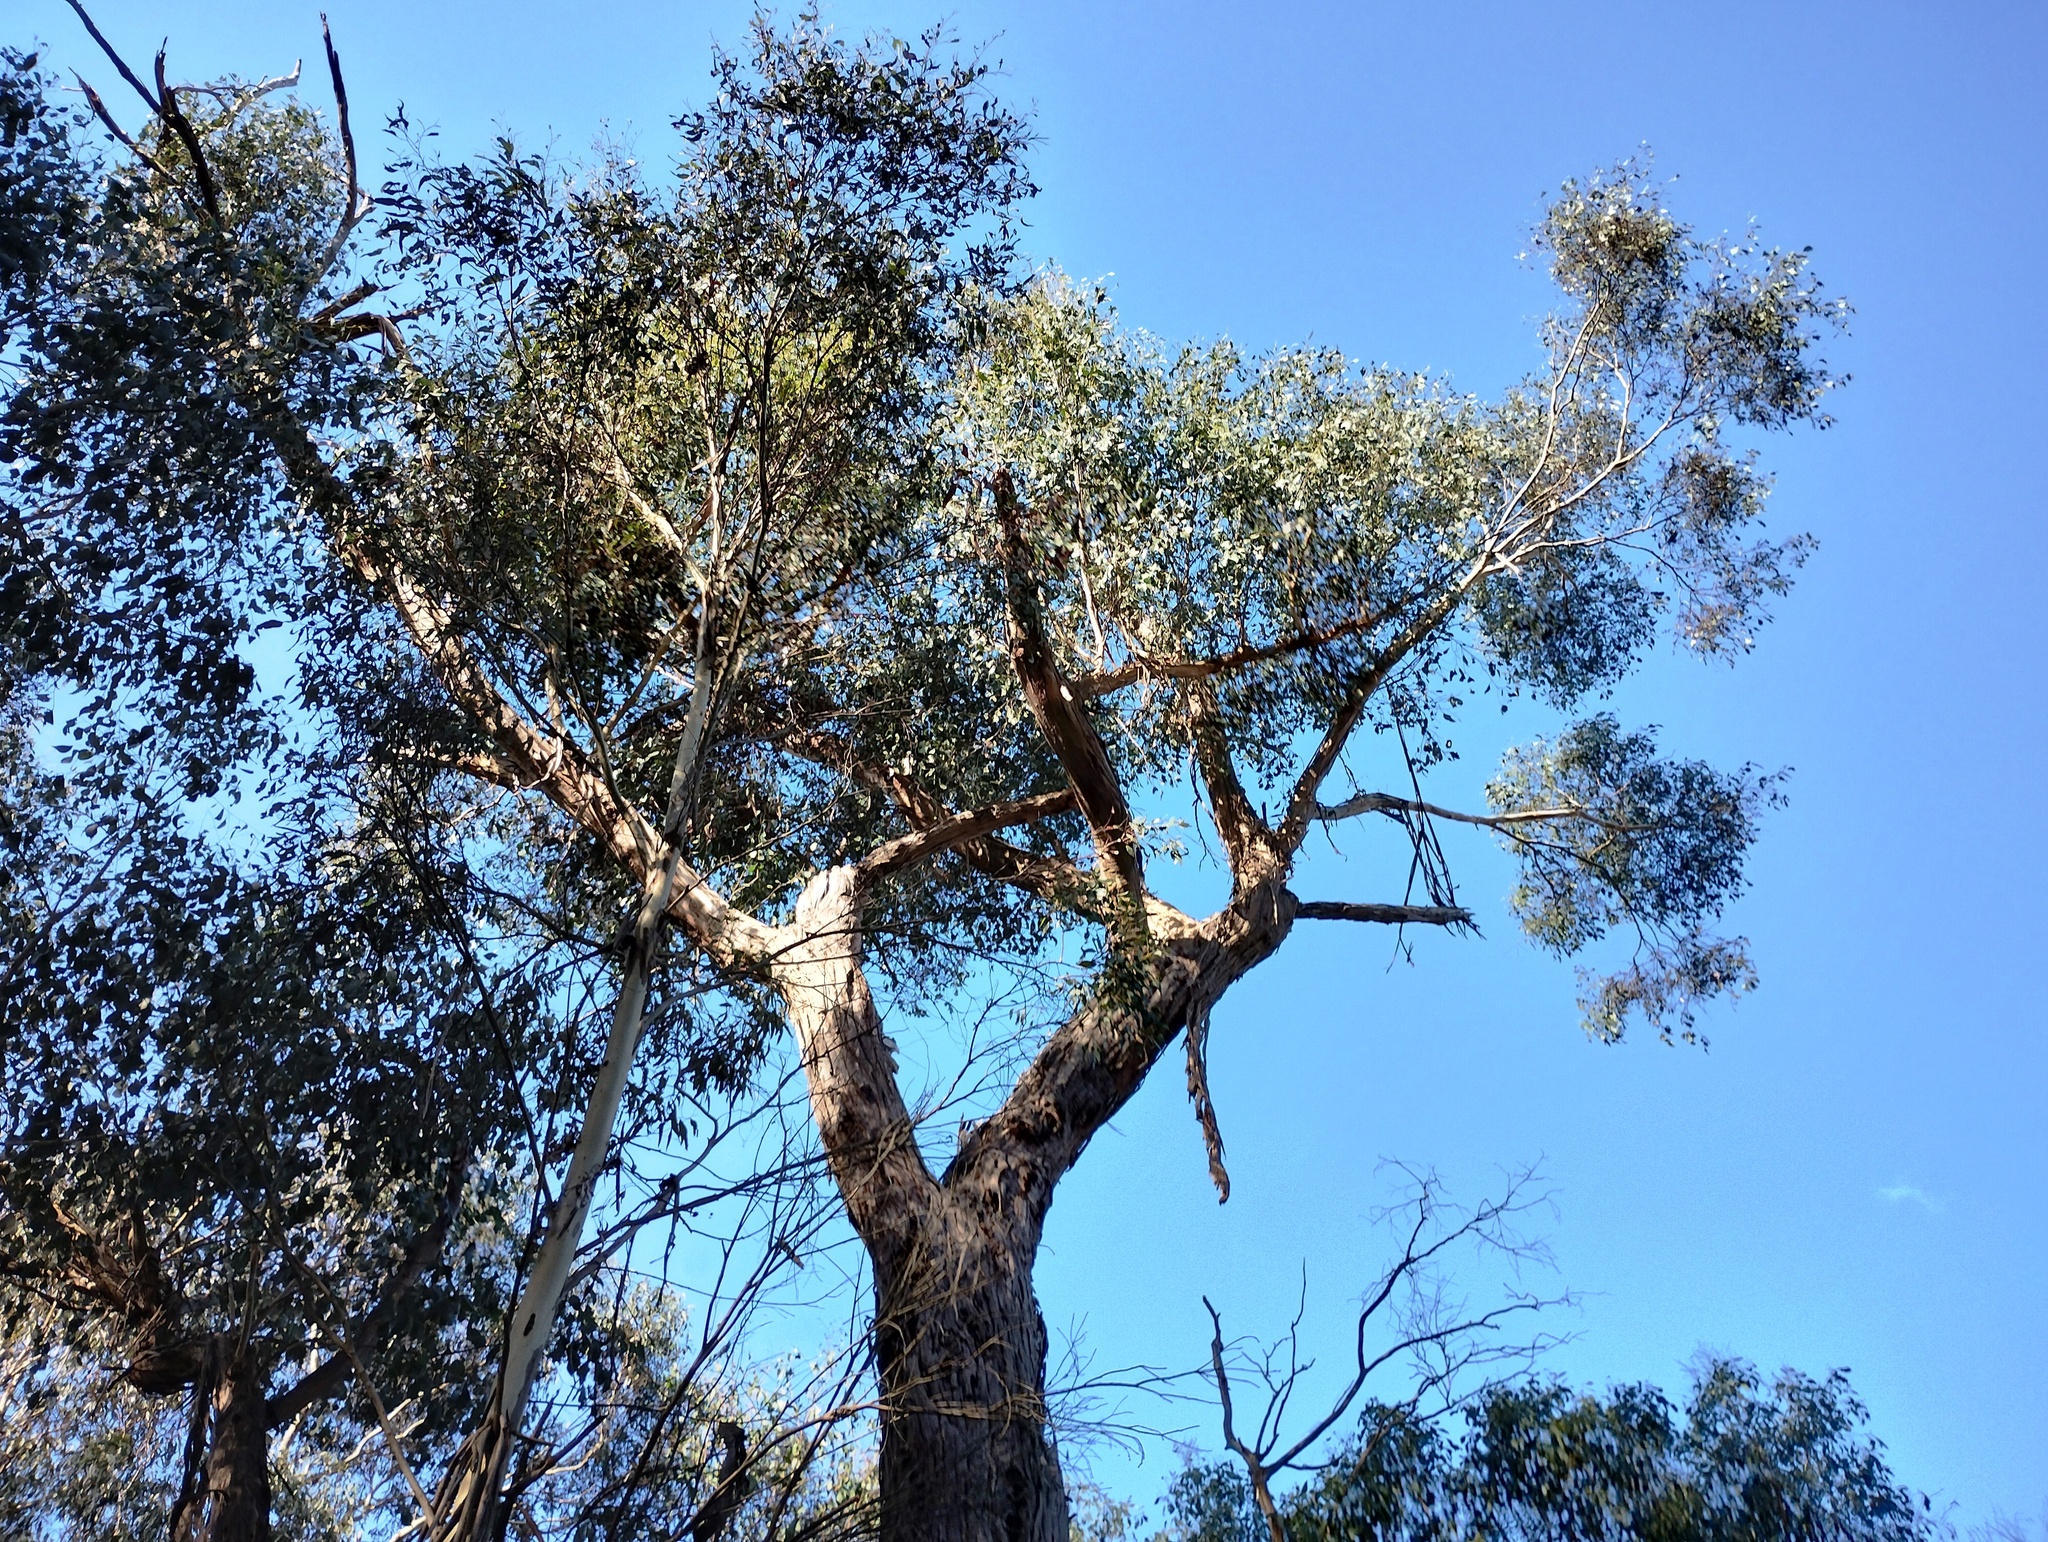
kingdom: Plantae
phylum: Tracheophyta
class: Magnoliopsida
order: Myrtales
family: Myrtaceae
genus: Eucalyptus
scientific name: Eucalyptus polyanthemos
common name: Red-box
